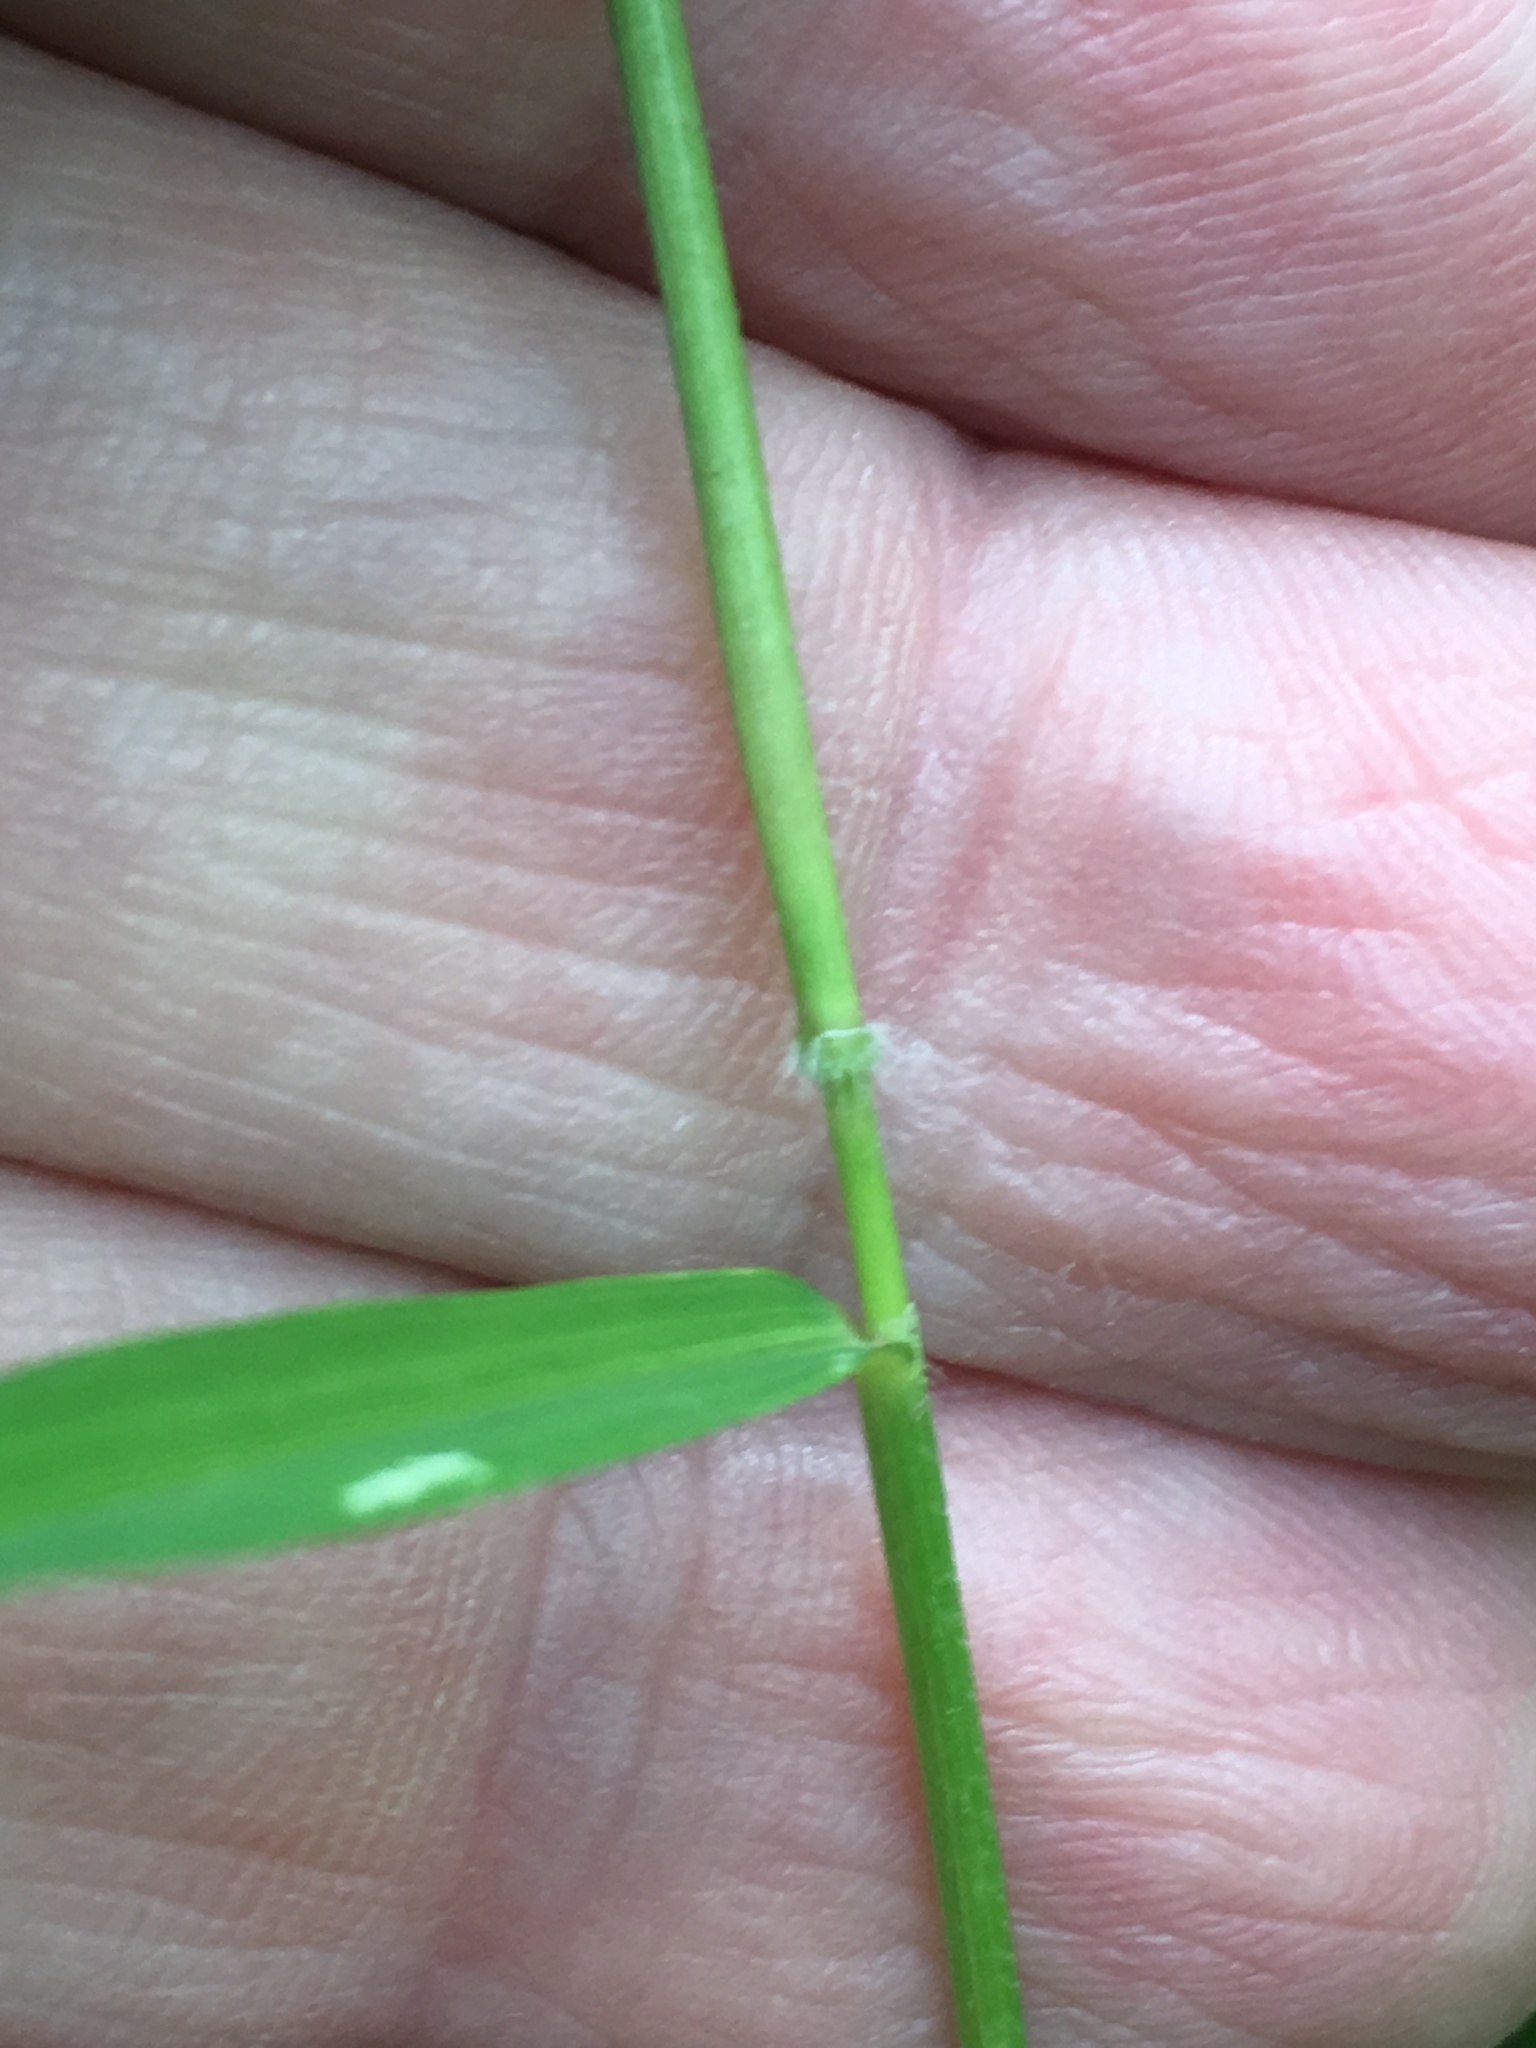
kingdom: Plantae
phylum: Tracheophyta
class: Liliopsida
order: Poales
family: Poaceae
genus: Leersia
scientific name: Leersia virginica
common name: White cutgrass
